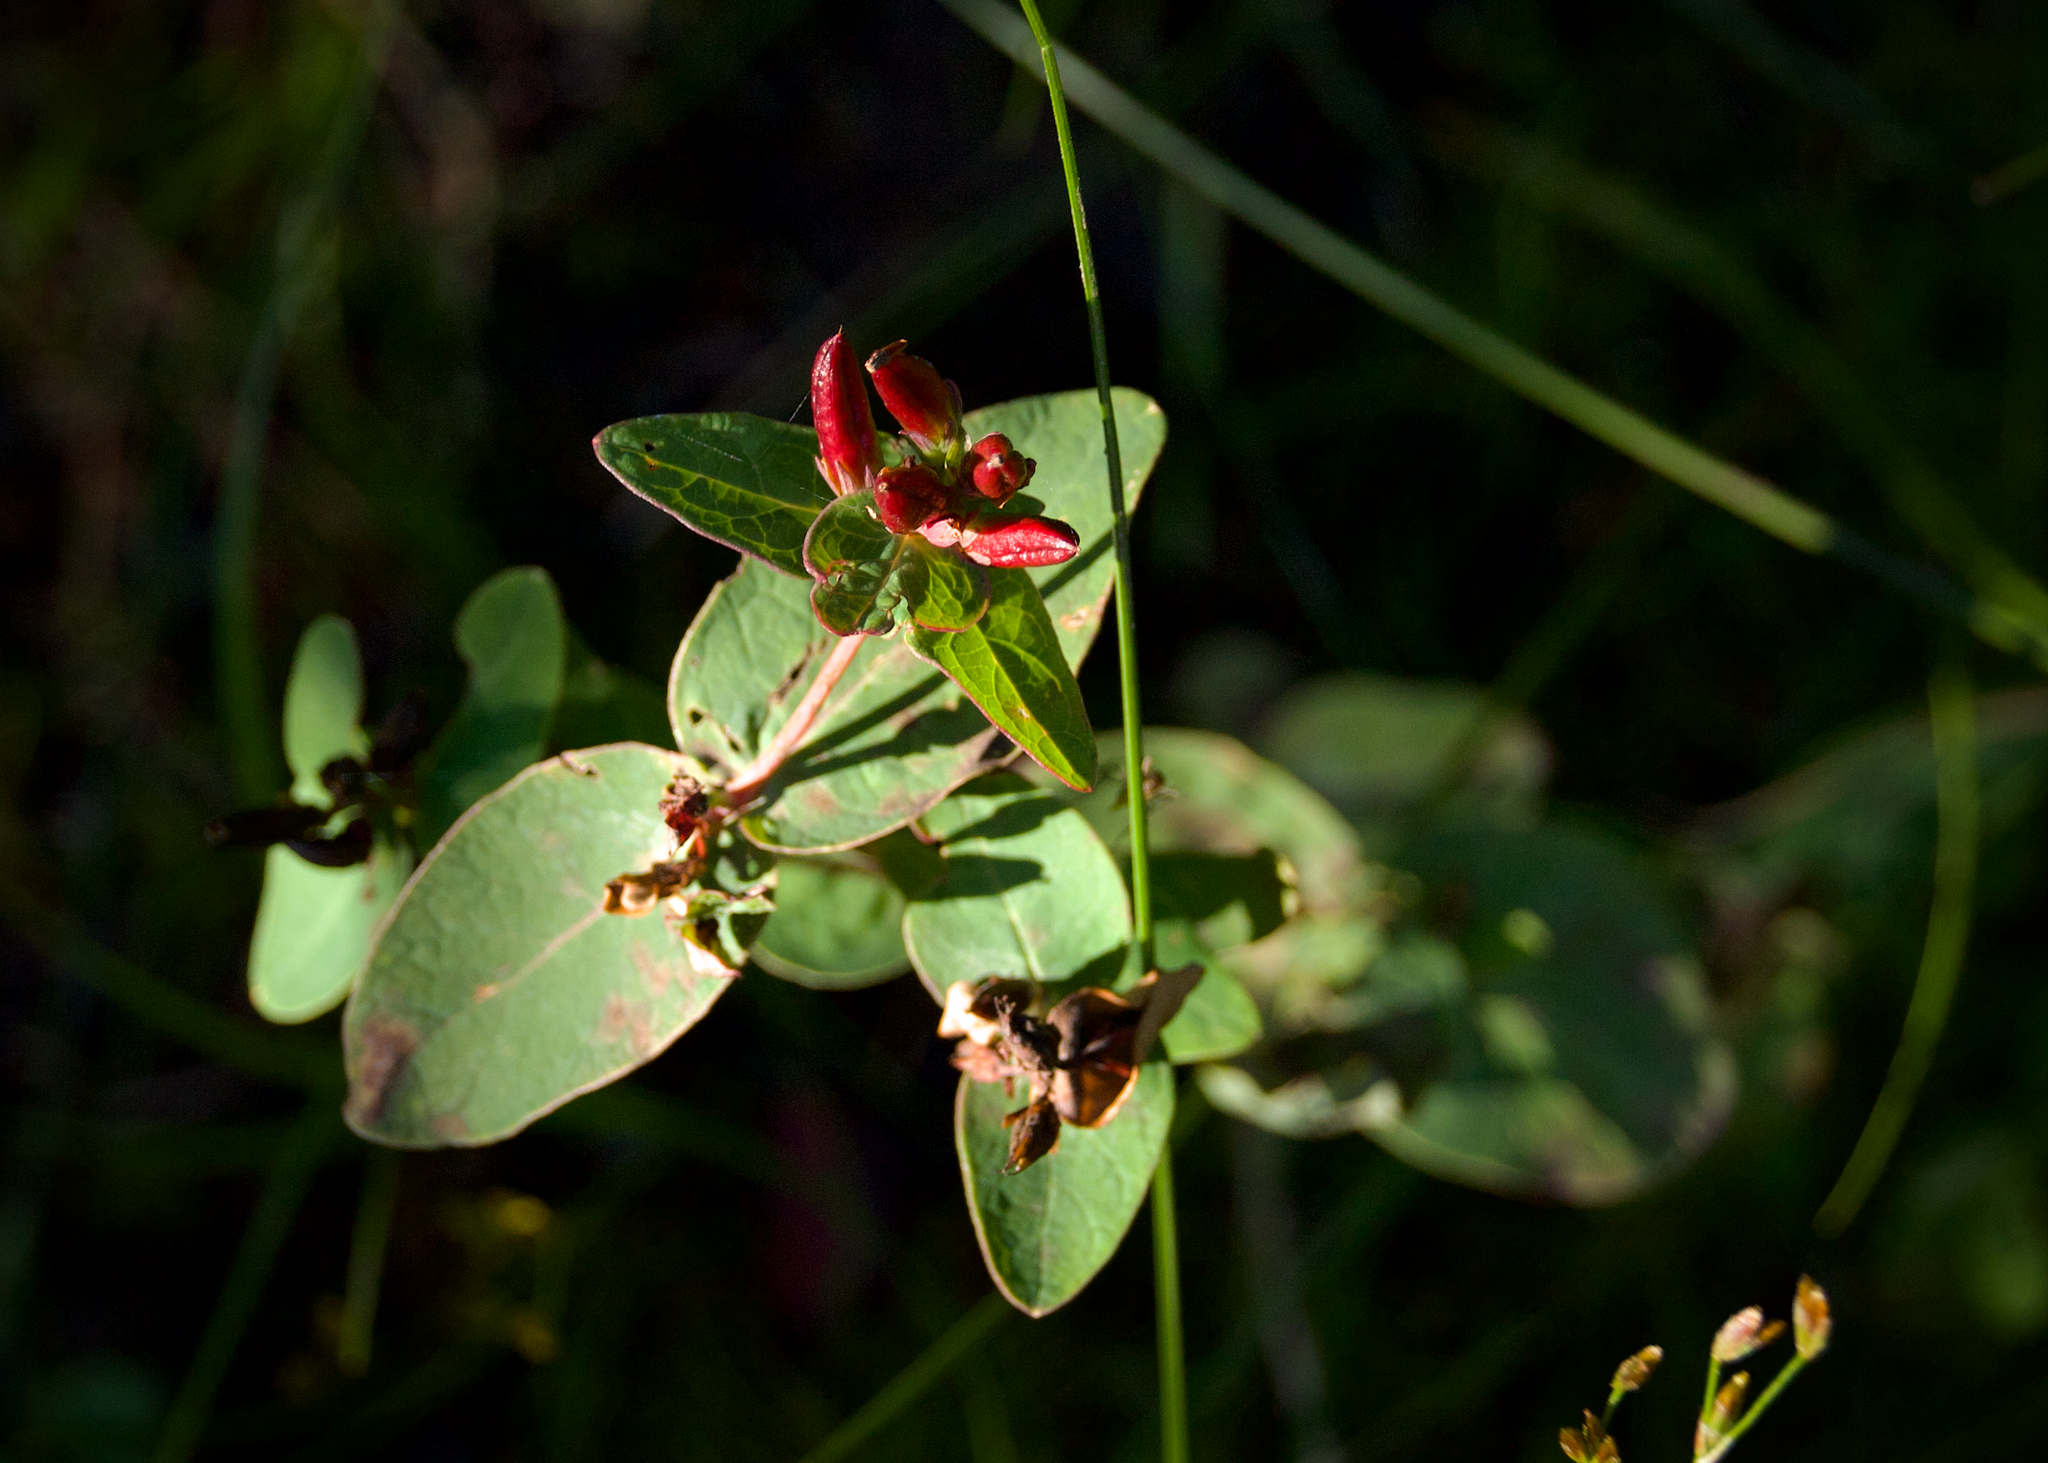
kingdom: Plantae
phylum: Tracheophyta
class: Magnoliopsida
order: Malpighiales
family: Hypericaceae
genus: Triadenum
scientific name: Triadenum fraseri
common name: Fraser's marsh st. johnswort
